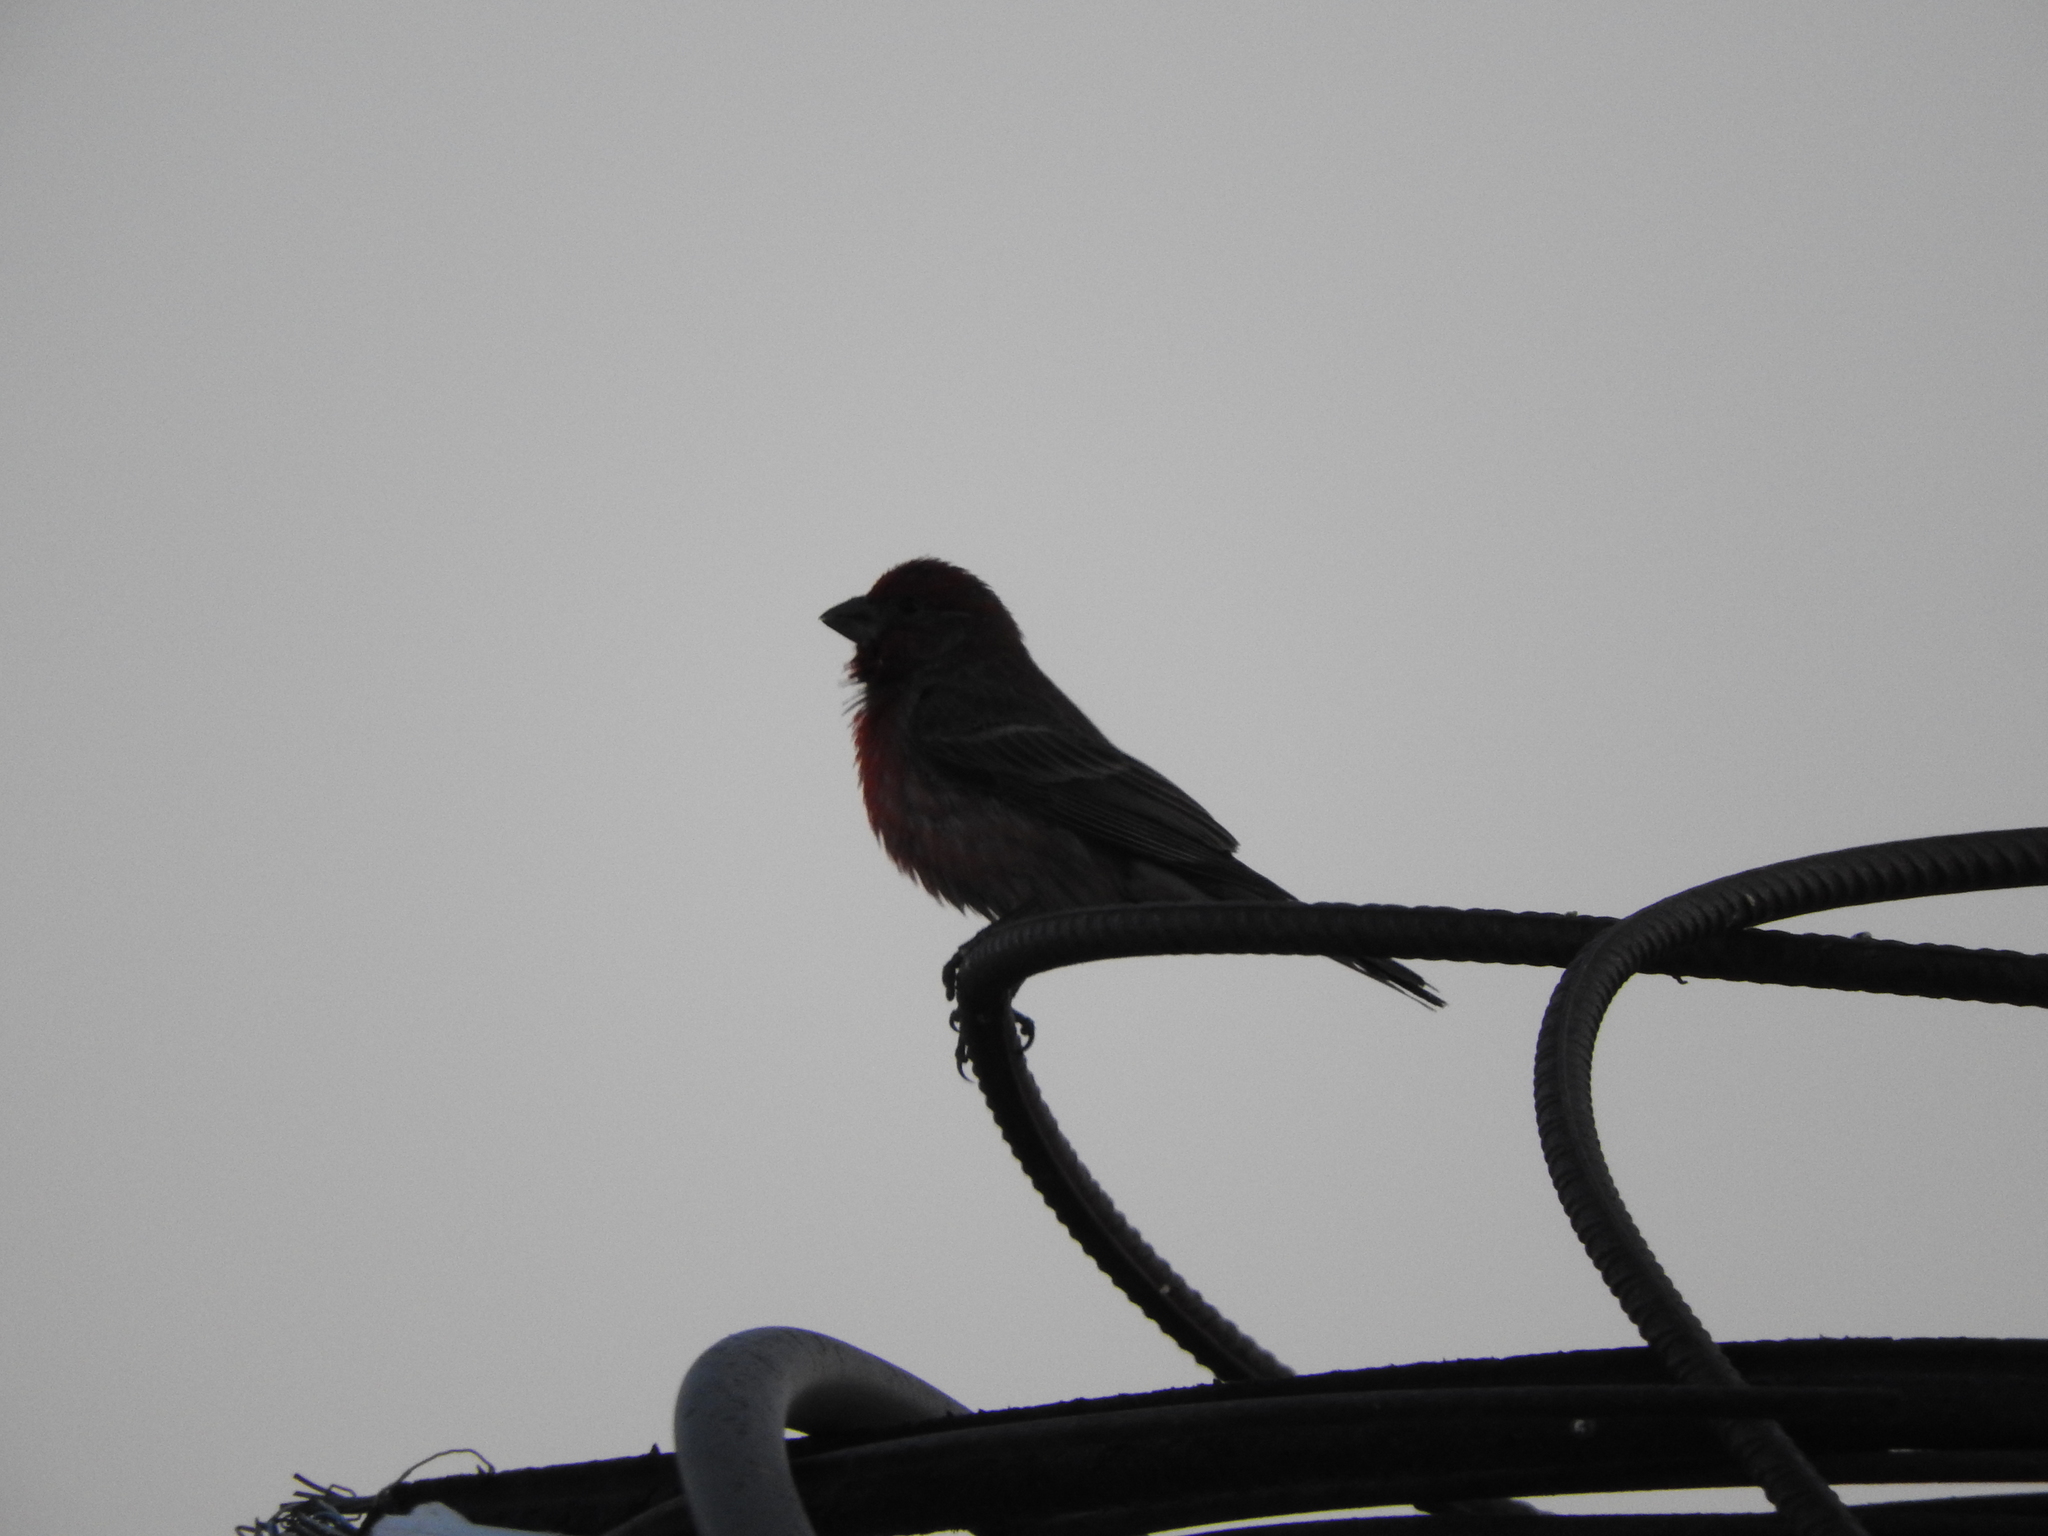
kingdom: Animalia
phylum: Chordata
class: Aves
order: Passeriformes
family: Fringillidae
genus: Haemorhous
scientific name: Haemorhous mexicanus
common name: House finch
